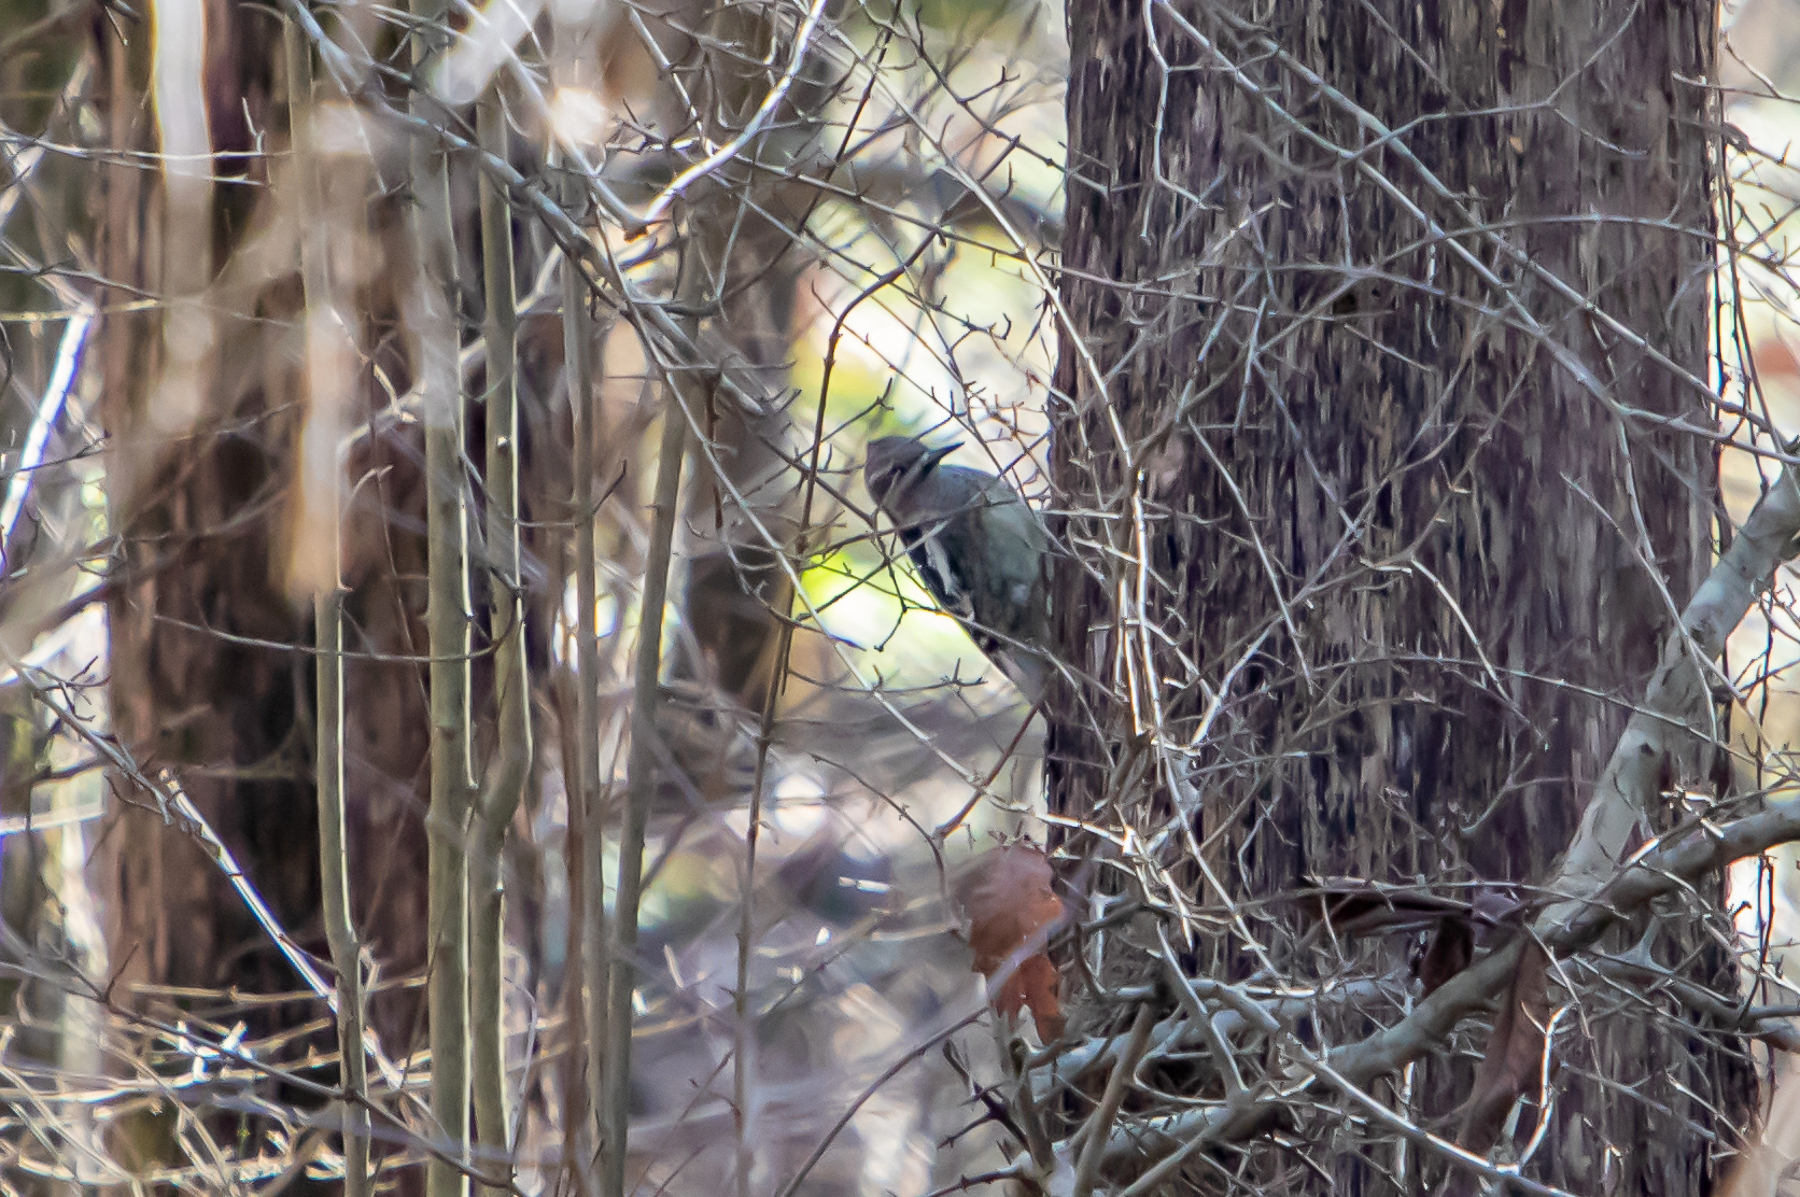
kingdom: Animalia
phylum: Chordata
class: Aves
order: Piciformes
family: Picidae
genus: Sphyrapicus
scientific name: Sphyrapicus varius
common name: Yellow-bellied sapsucker
